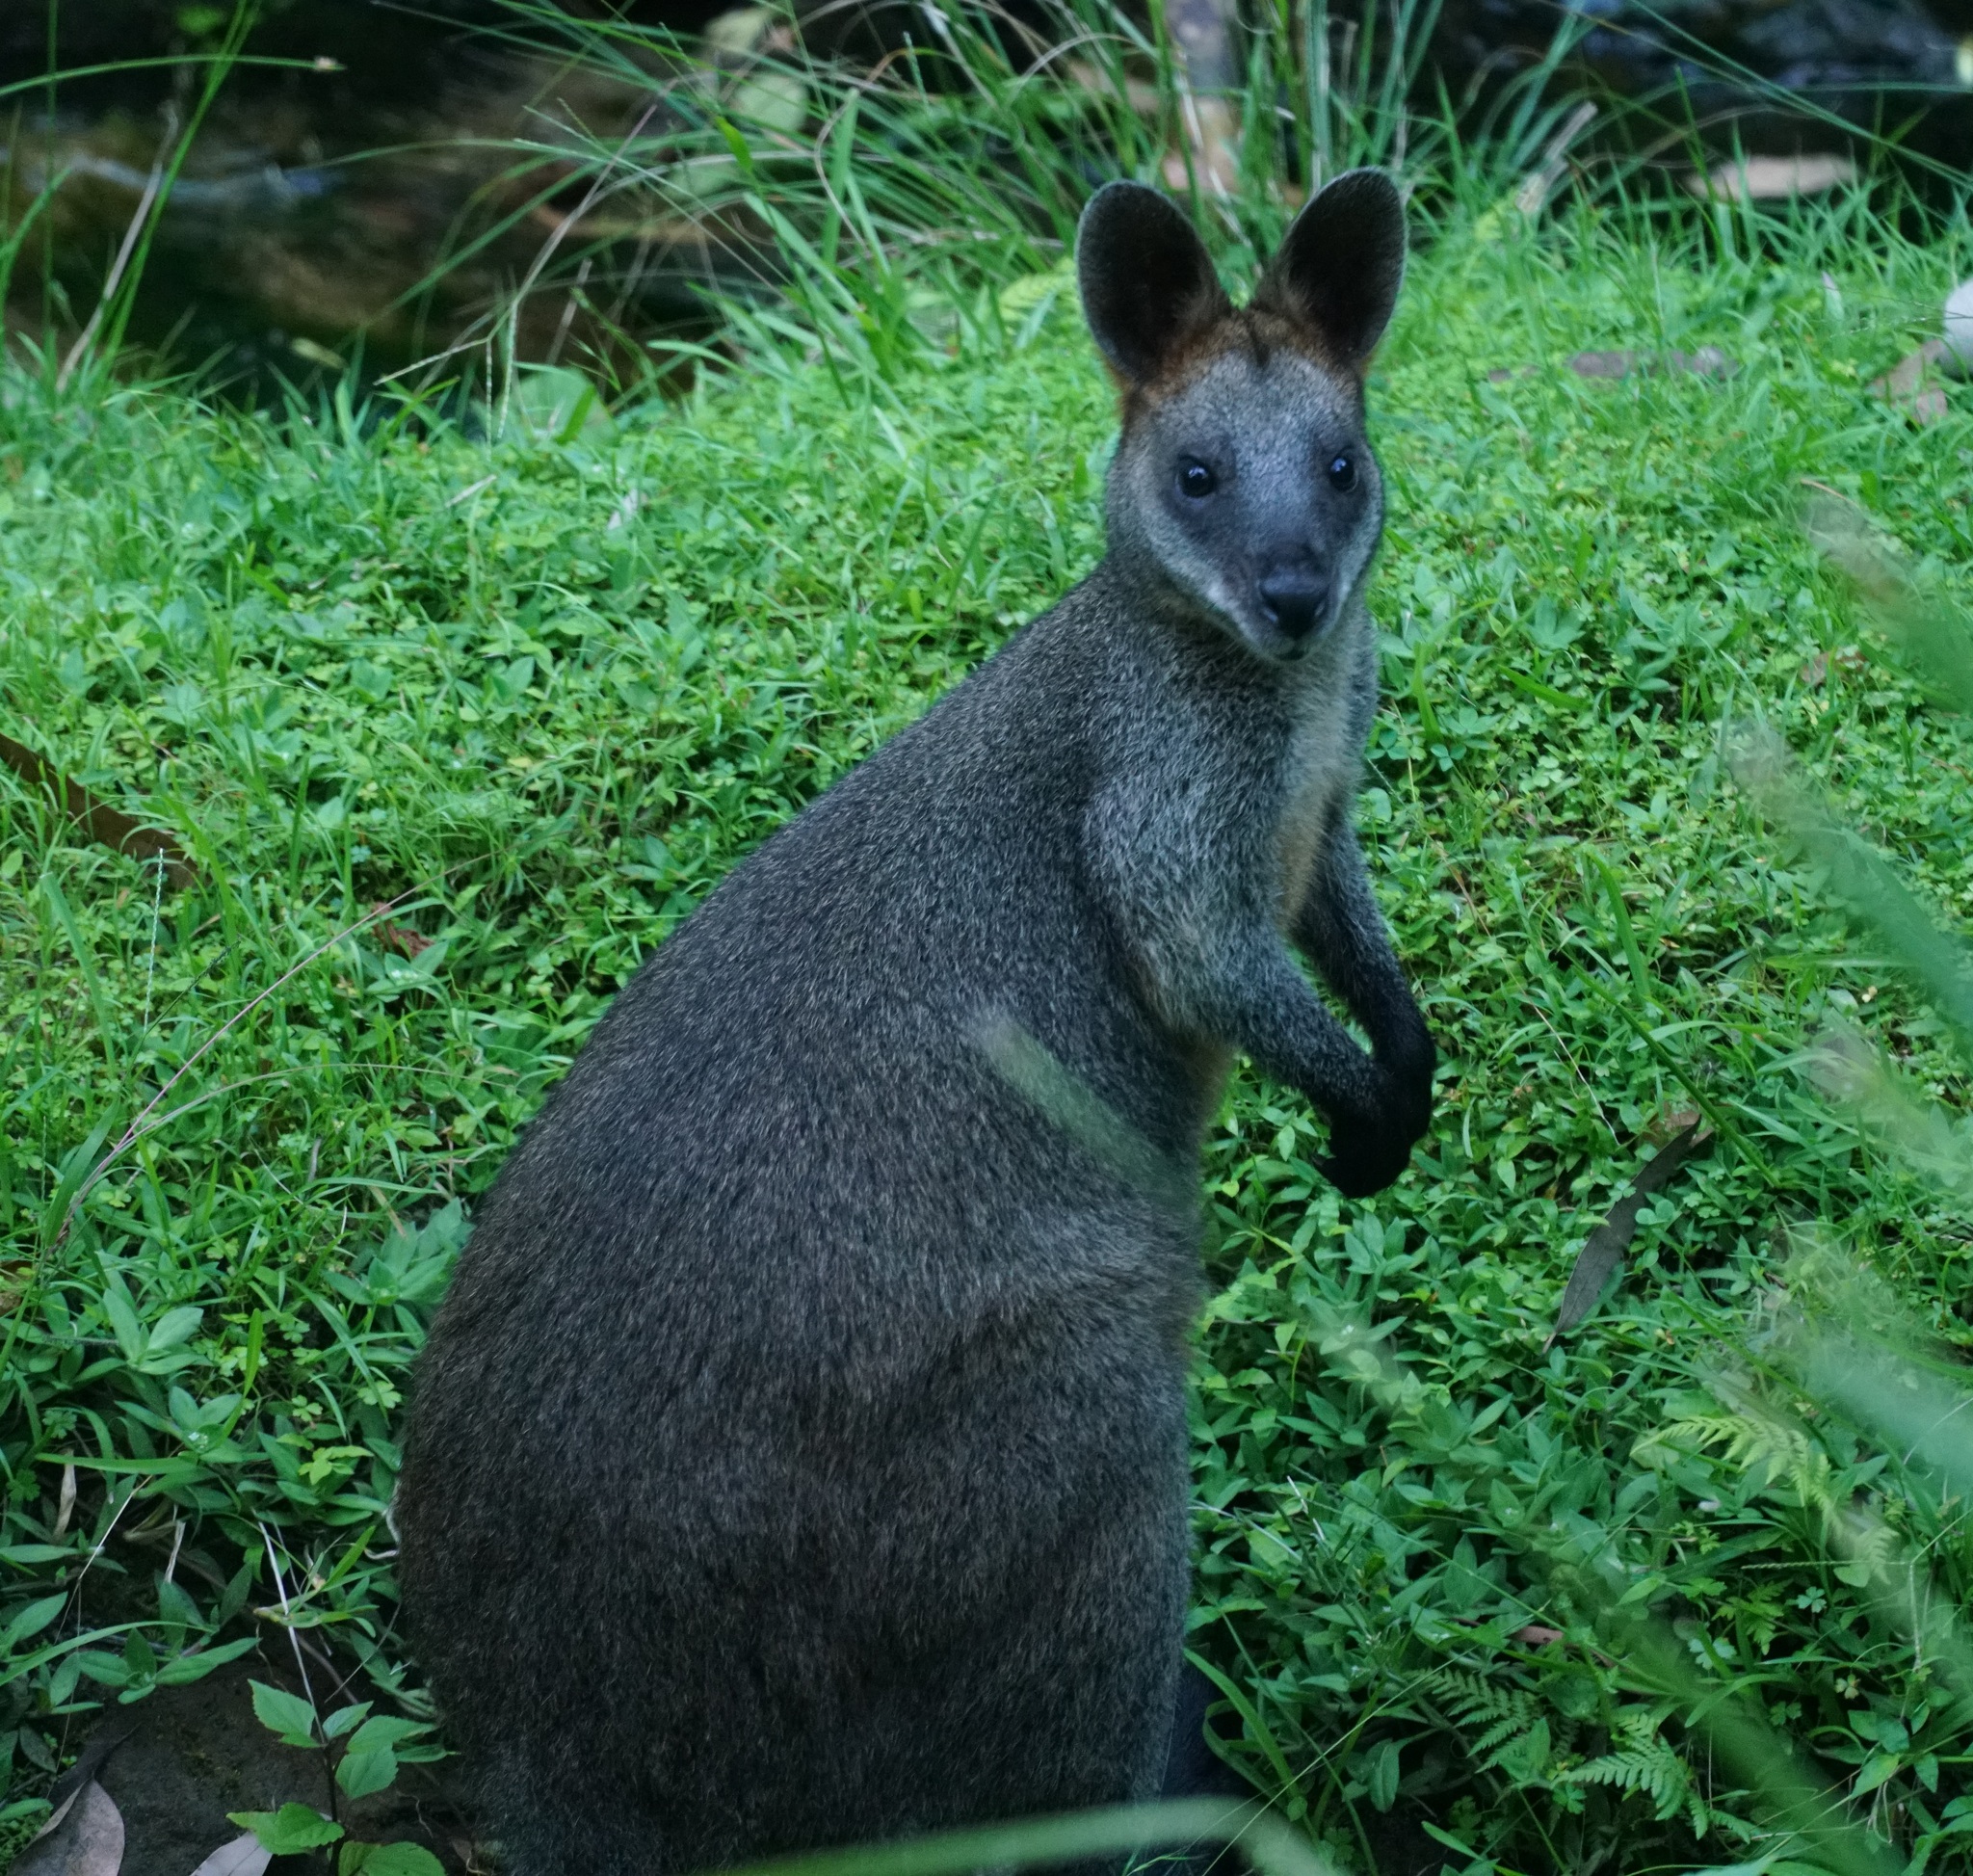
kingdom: Animalia
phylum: Chordata
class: Mammalia
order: Diprotodontia
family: Macropodidae
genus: Wallabia
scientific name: Wallabia bicolor
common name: Swamp wallaby
